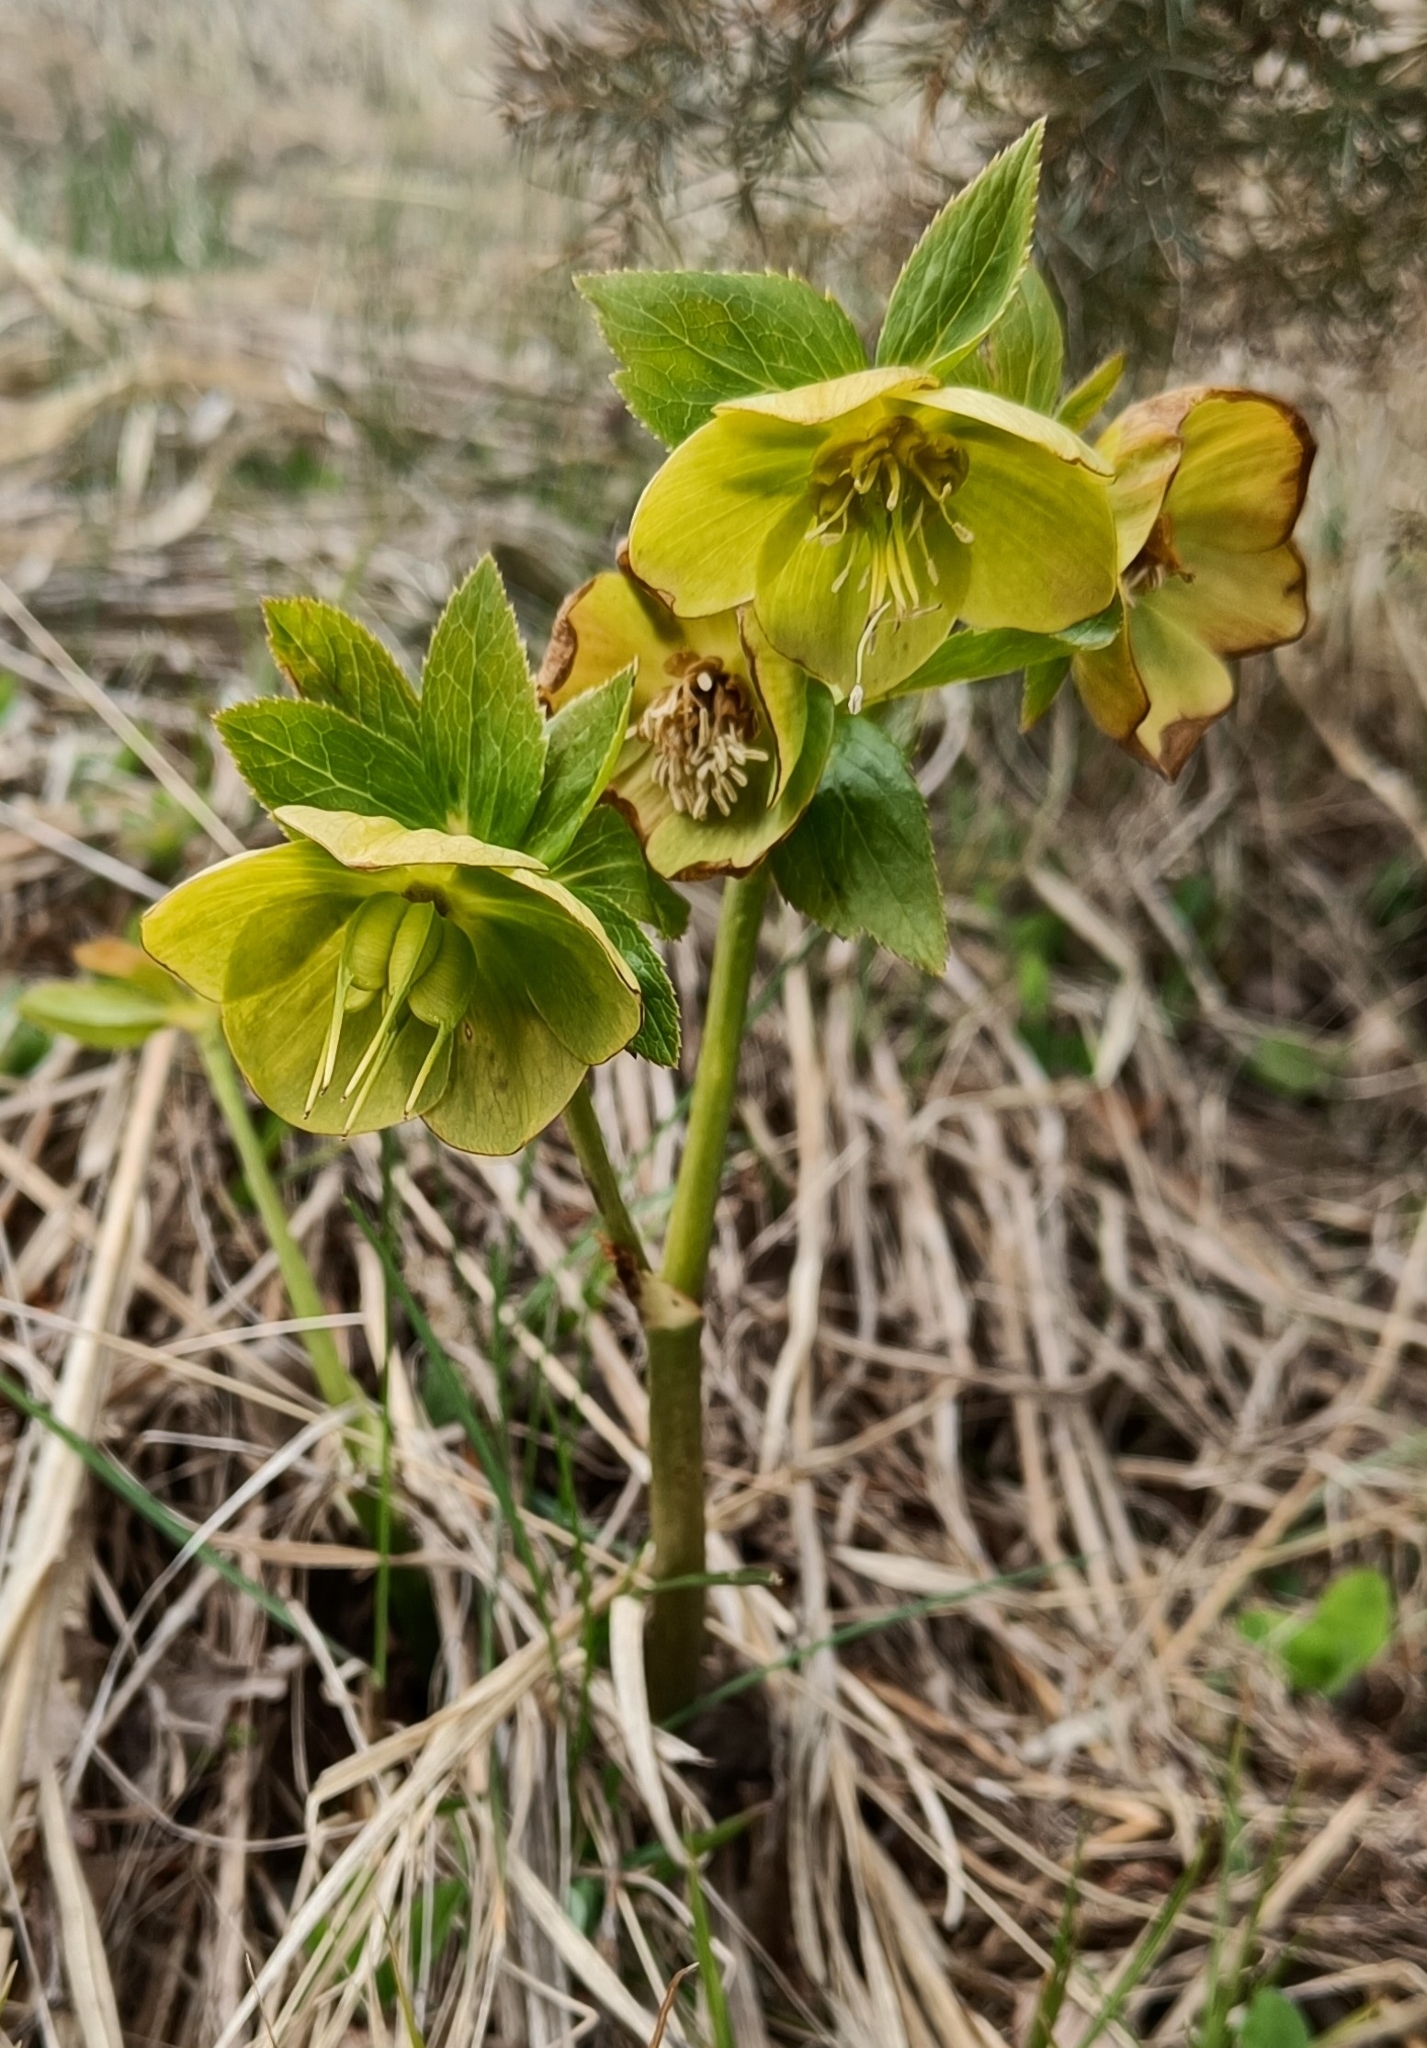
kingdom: Plantae
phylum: Tracheophyta
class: Magnoliopsida
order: Ranunculales
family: Ranunculaceae
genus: Helleborus
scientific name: Helleborus odorus
